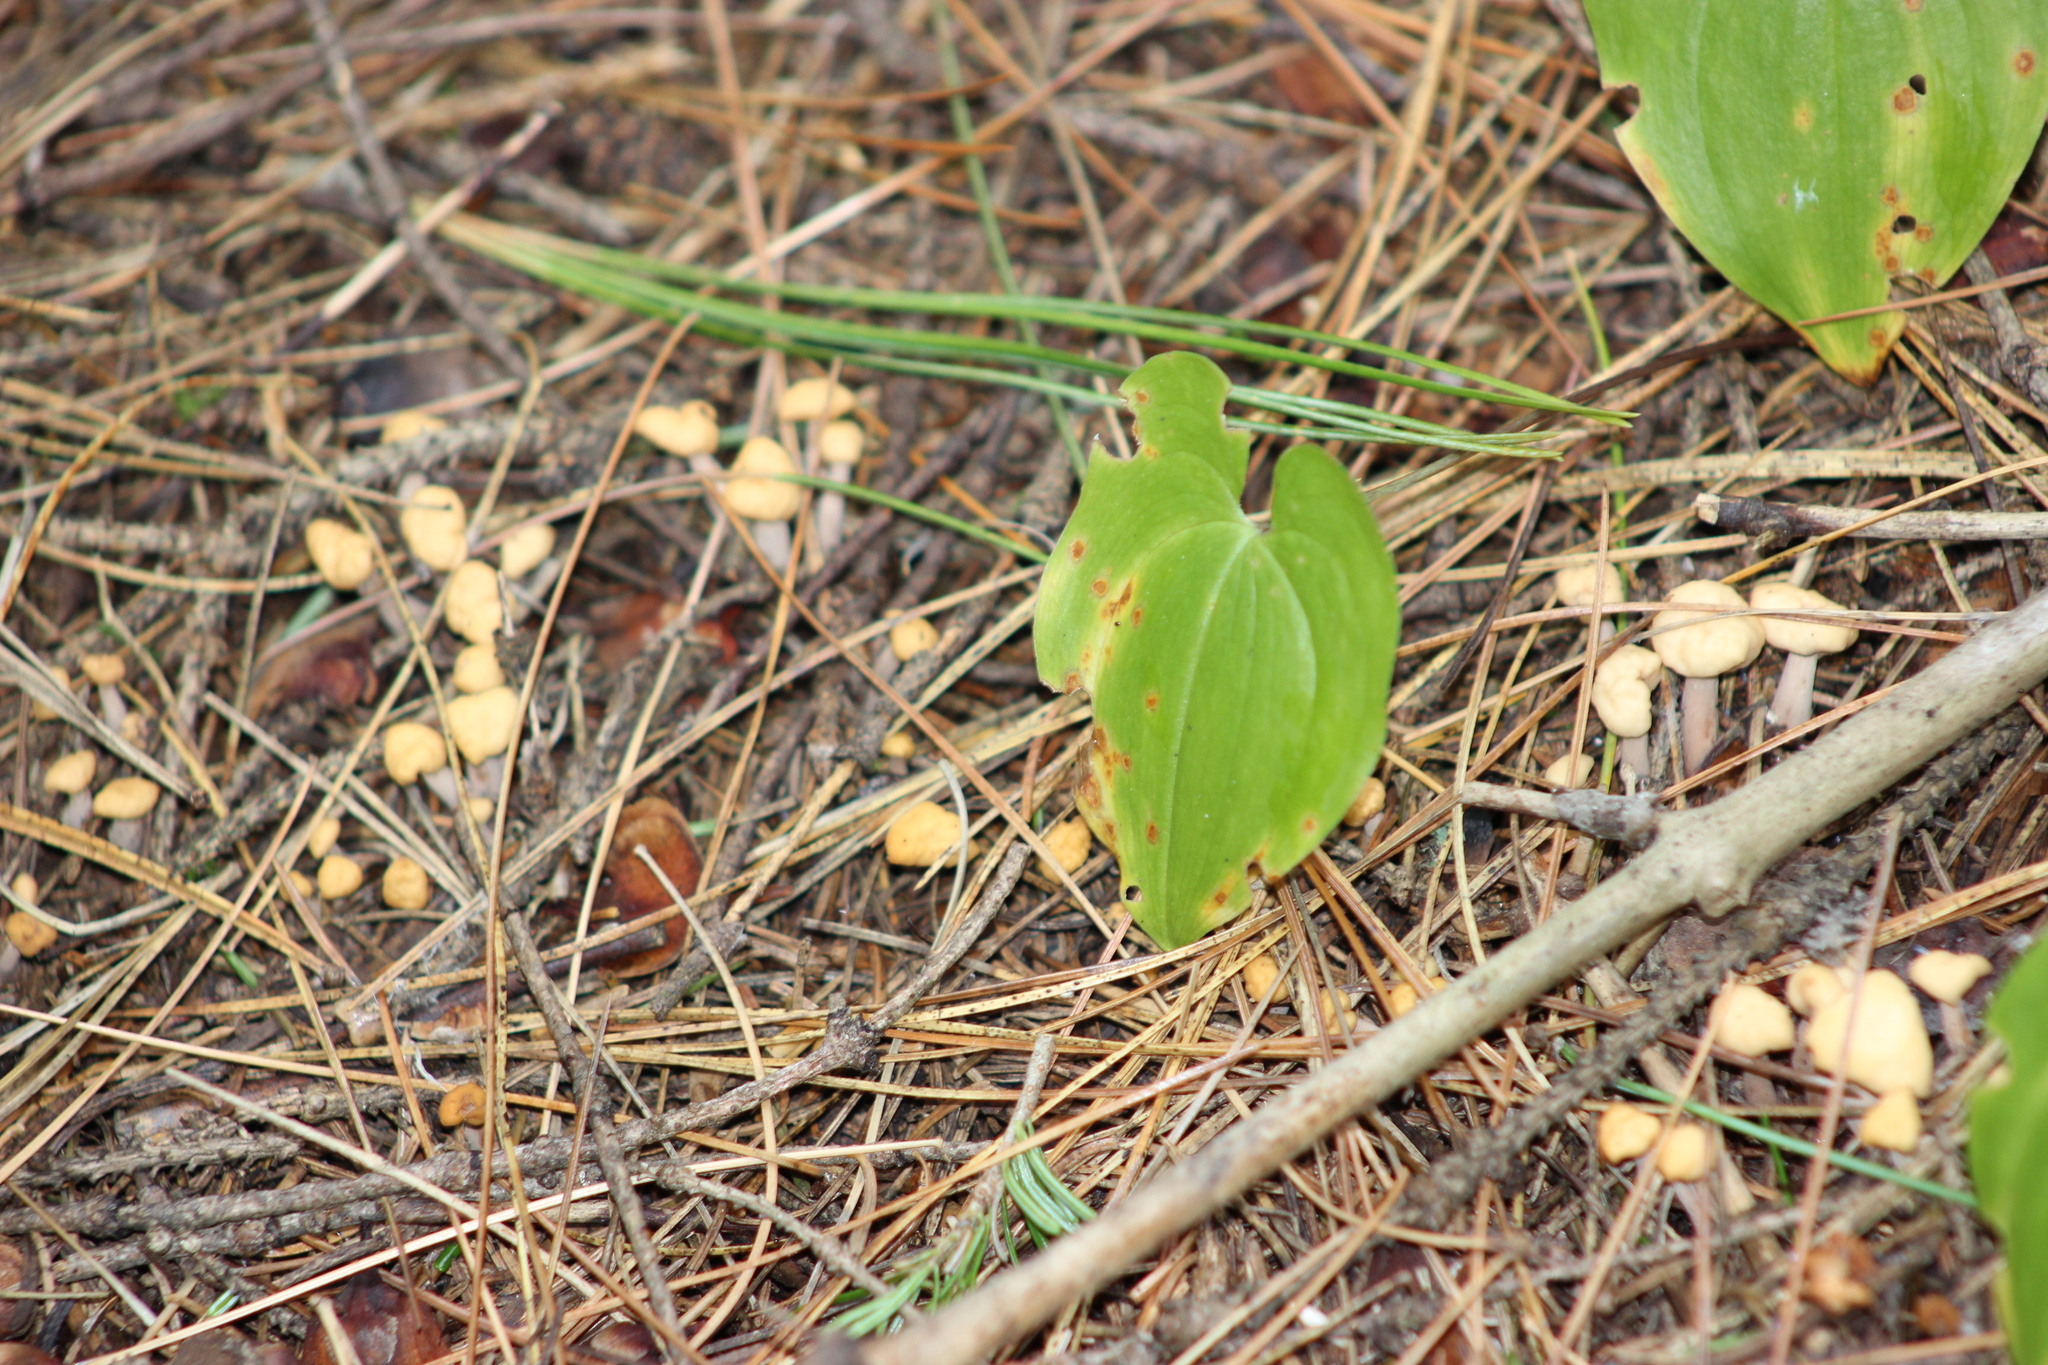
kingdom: Fungi
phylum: Ascomycota
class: Leotiomycetes
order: Rhytismatales
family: Cudoniaceae
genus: Cudonia
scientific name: Cudonia circinans
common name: Redleg jellybaby
